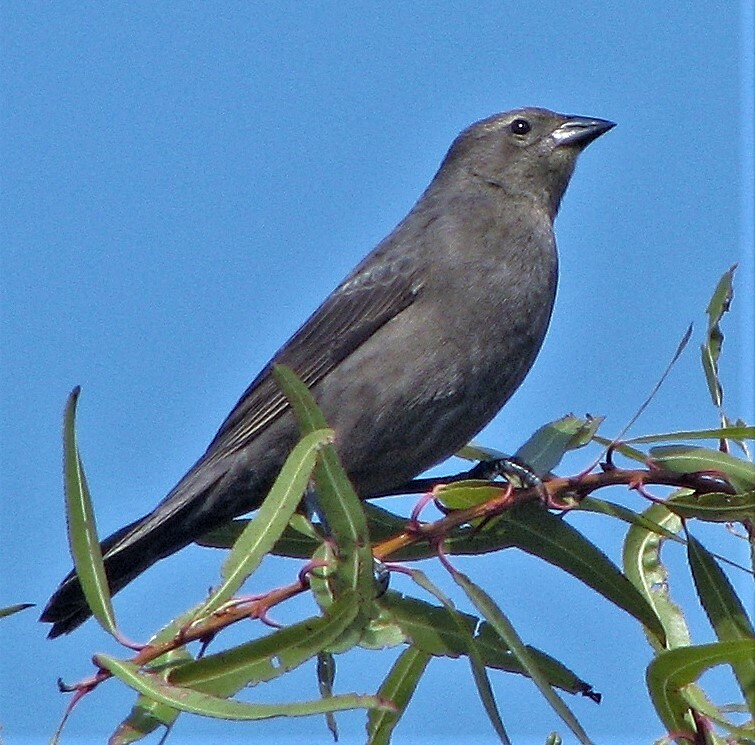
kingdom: Animalia
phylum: Chordata
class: Aves
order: Passeriformes
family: Icteridae
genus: Molothrus
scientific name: Molothrus bonariensis
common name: Shiny cowbird
